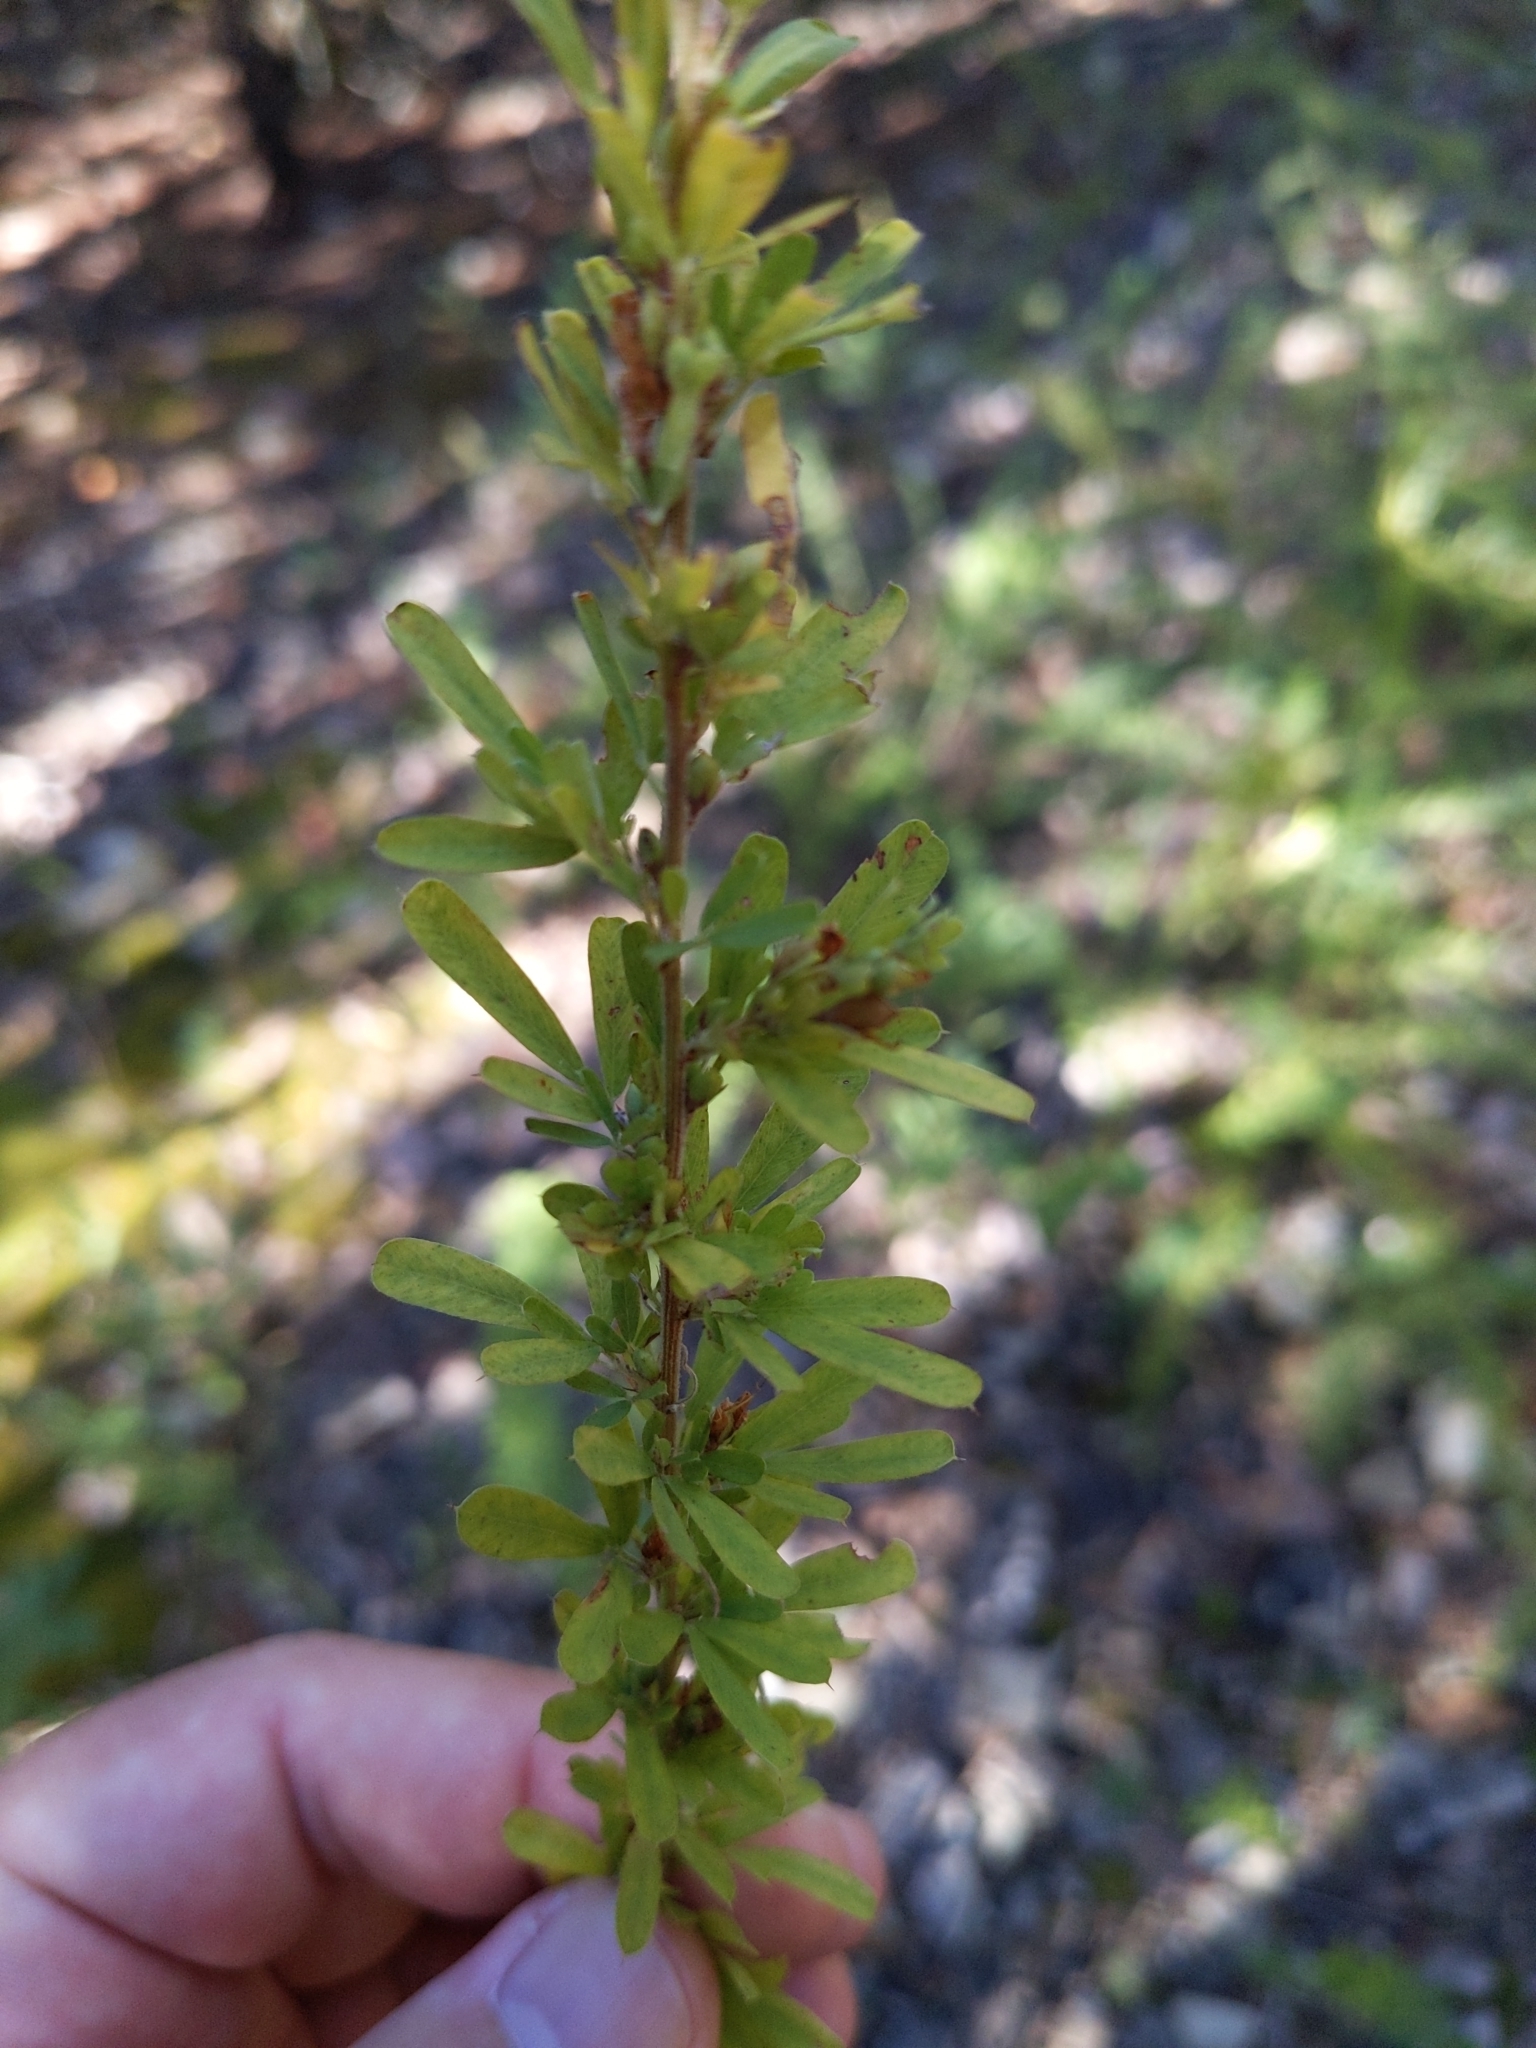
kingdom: Plantae
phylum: Tracheophyta
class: Magnoliopsida
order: Fabales
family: Fabaceae
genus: Lespedeza
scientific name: Lespedeza cuneata
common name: Chinese bush-clover
